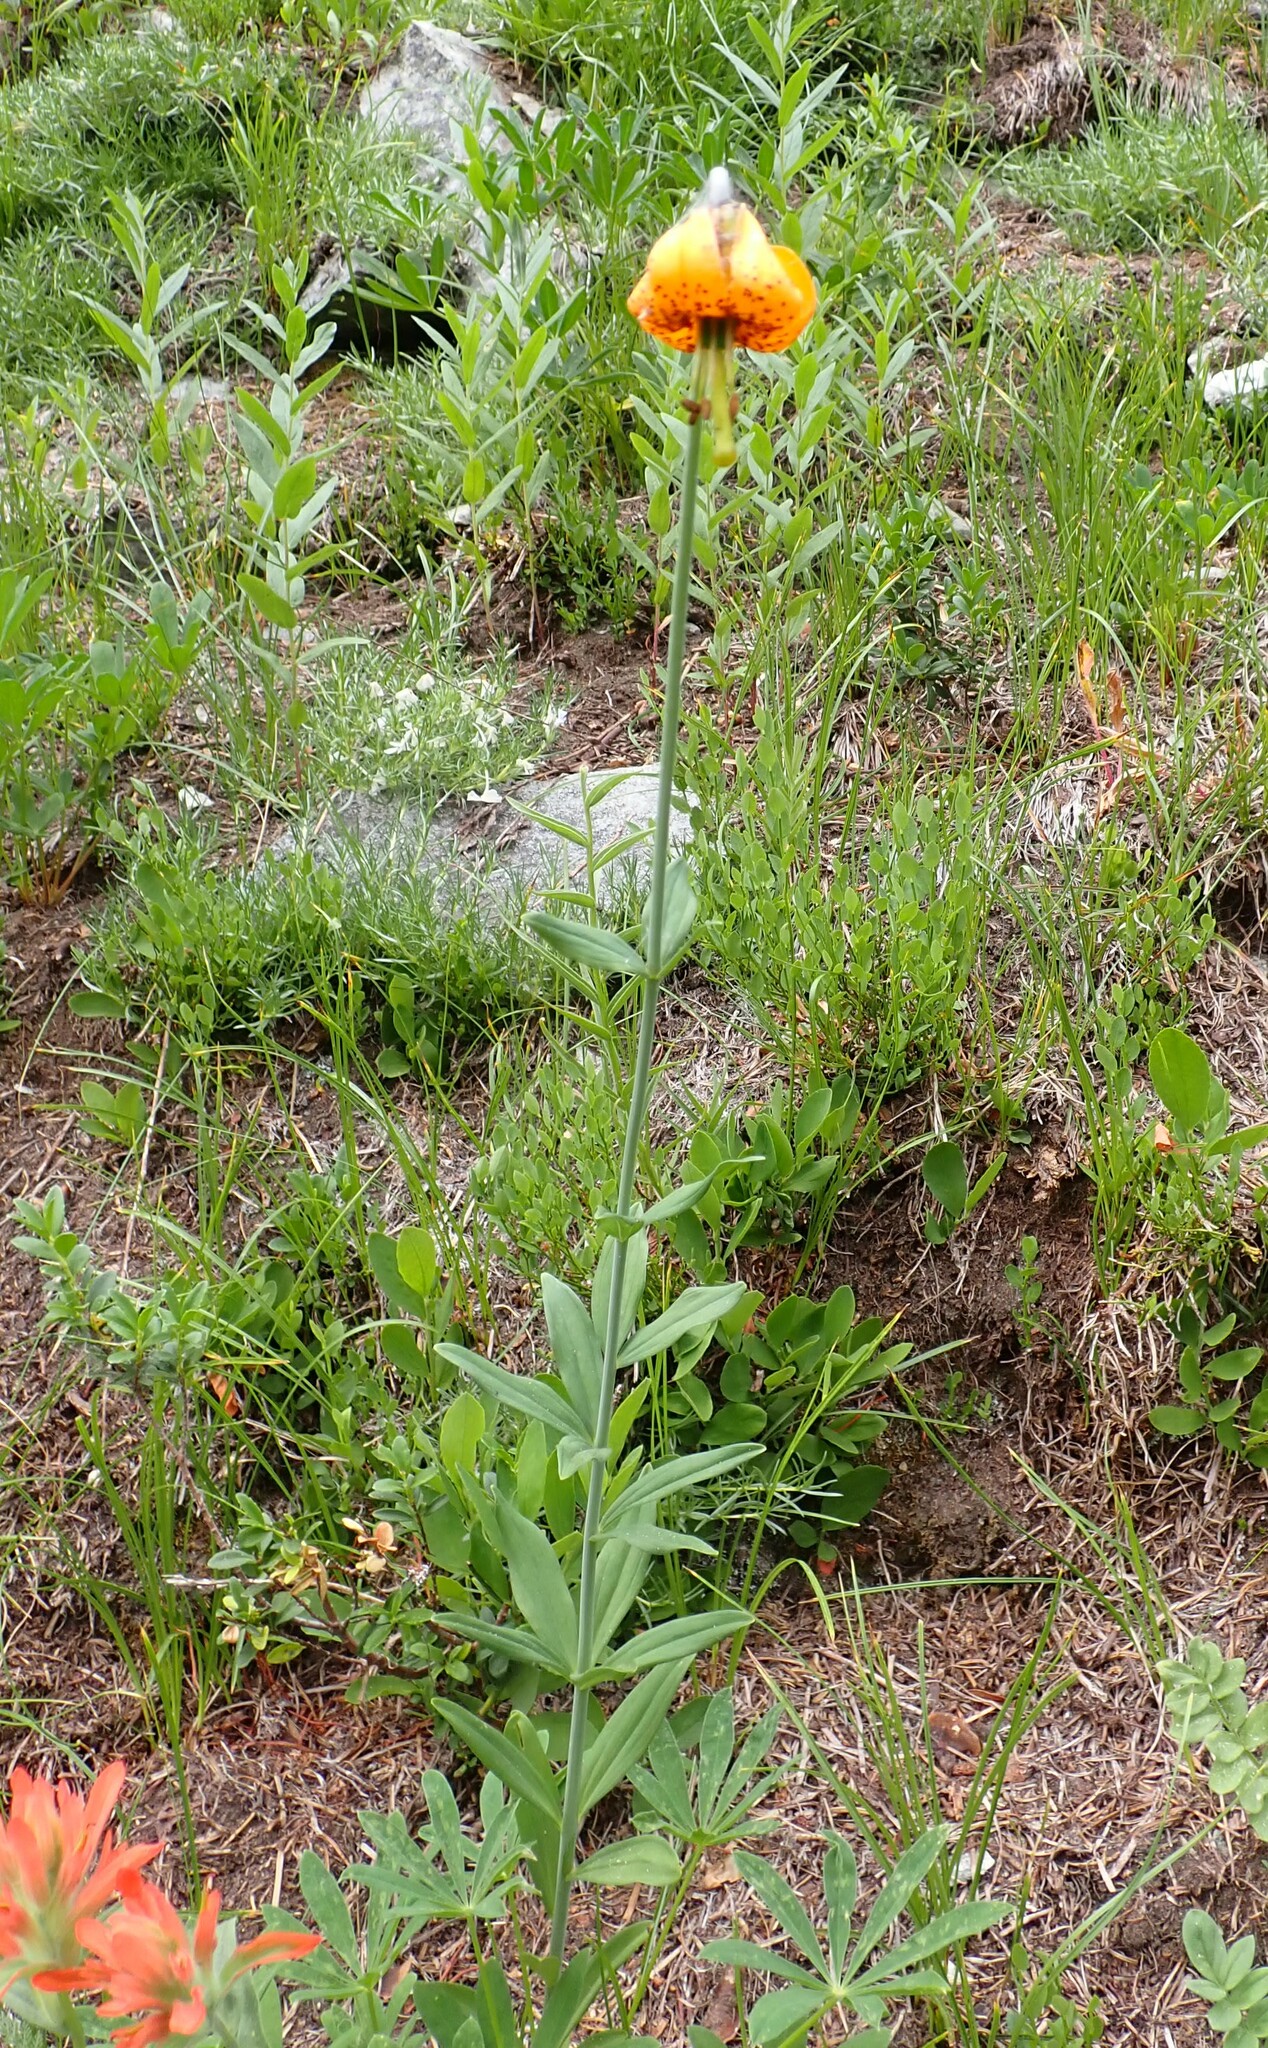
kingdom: Plantae
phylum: Tracheophyta
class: Liliopsida
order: Liliales
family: Liliaceae
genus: Lilium
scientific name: Lilium columbianum
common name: Columbia lily
